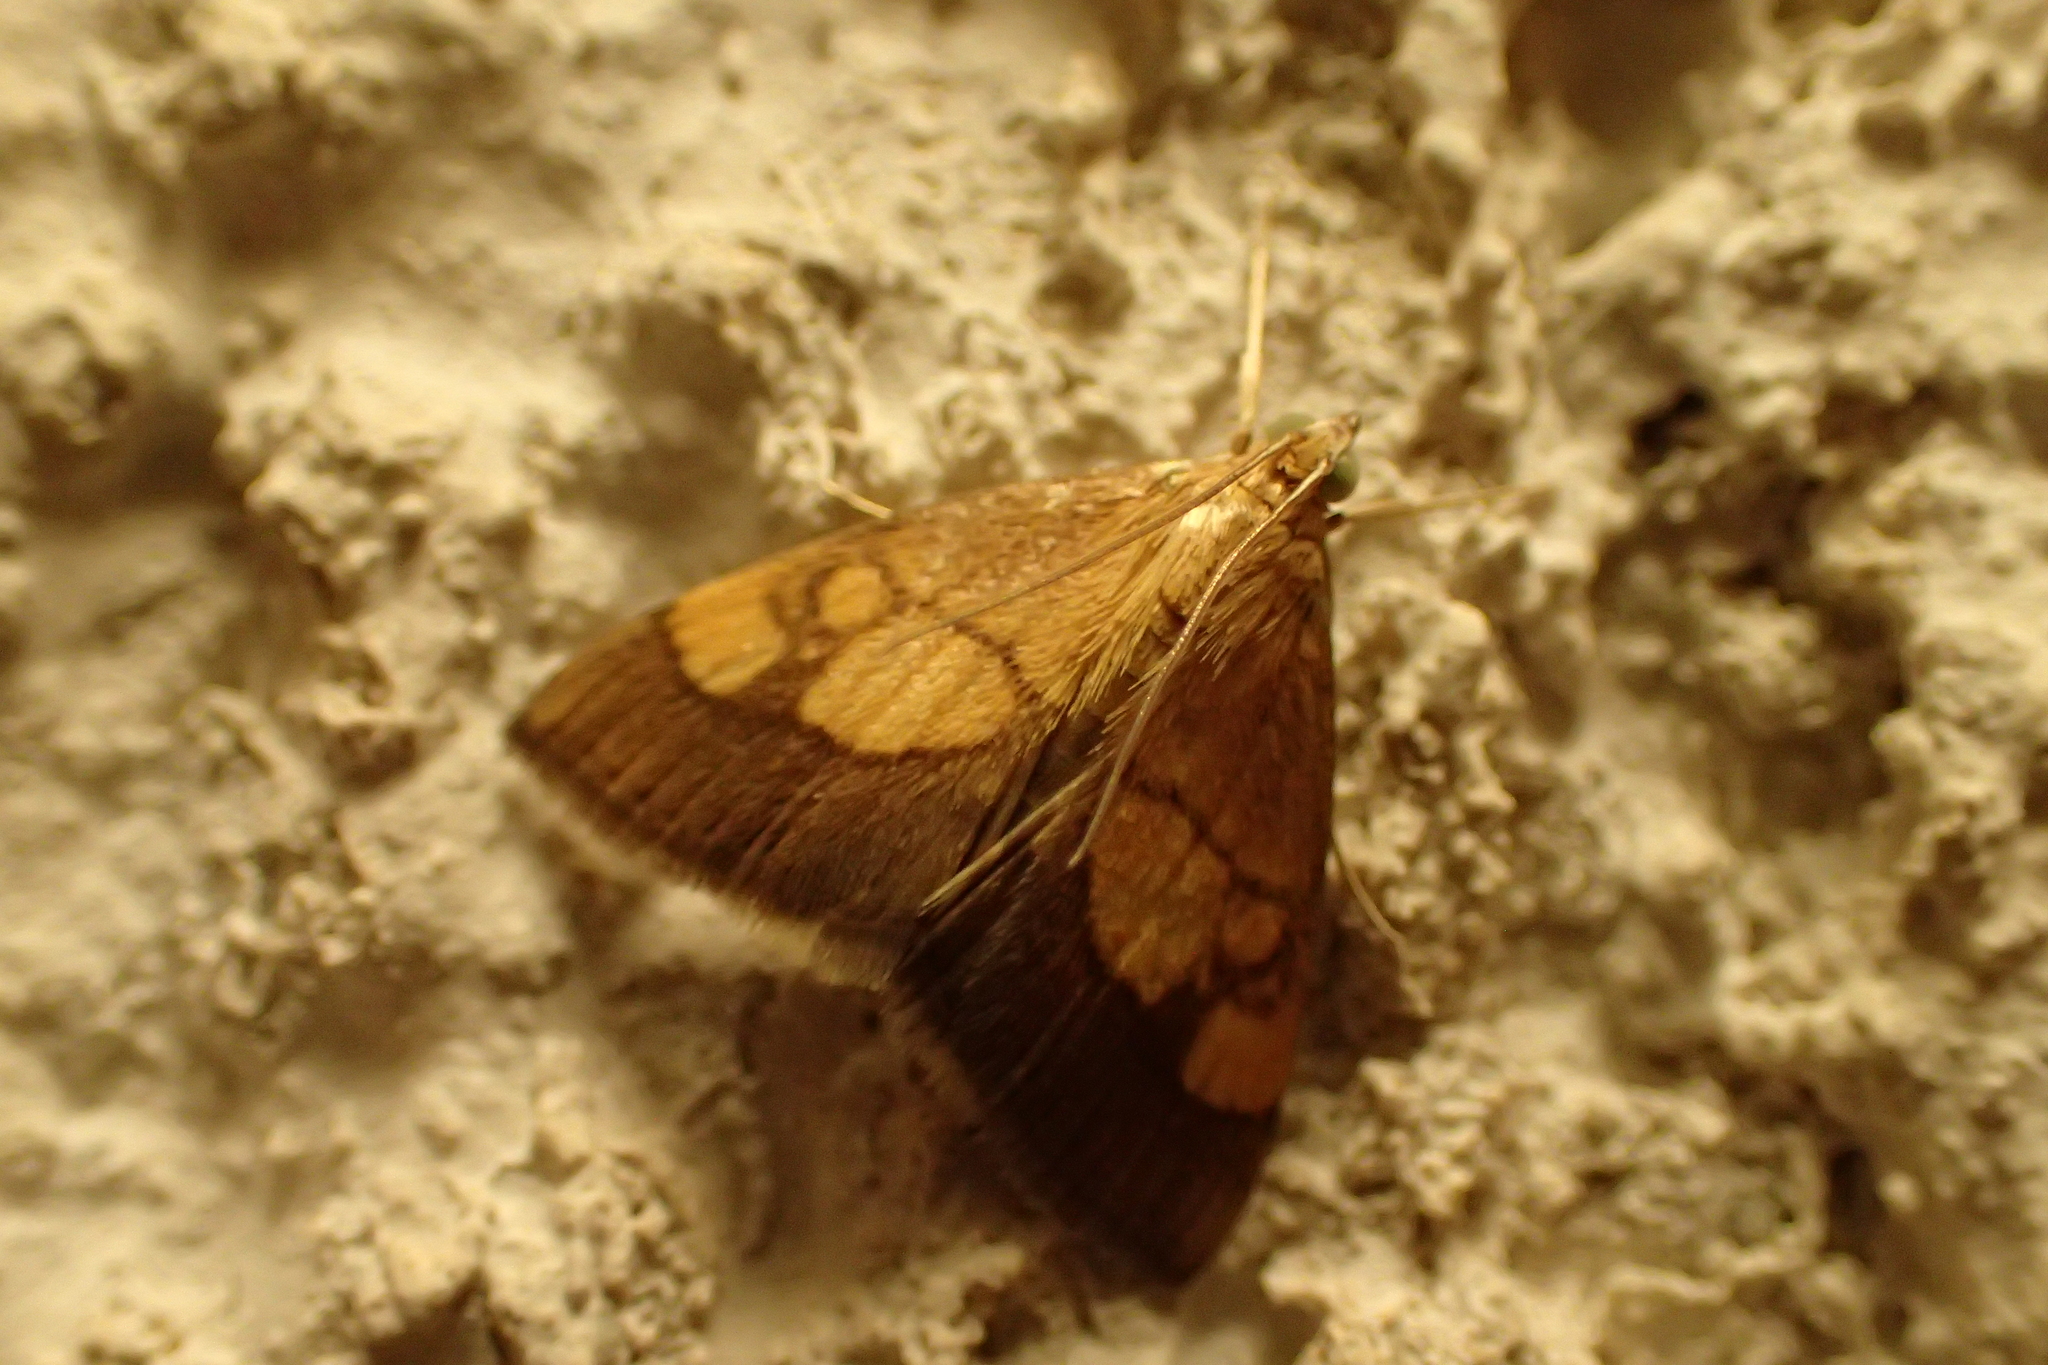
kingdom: Animalia
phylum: Arthropoda
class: Insecta
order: Lepidoptera
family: Crambidae
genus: Evergestis
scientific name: Evergestis limbata
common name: Dark bordered pearl
